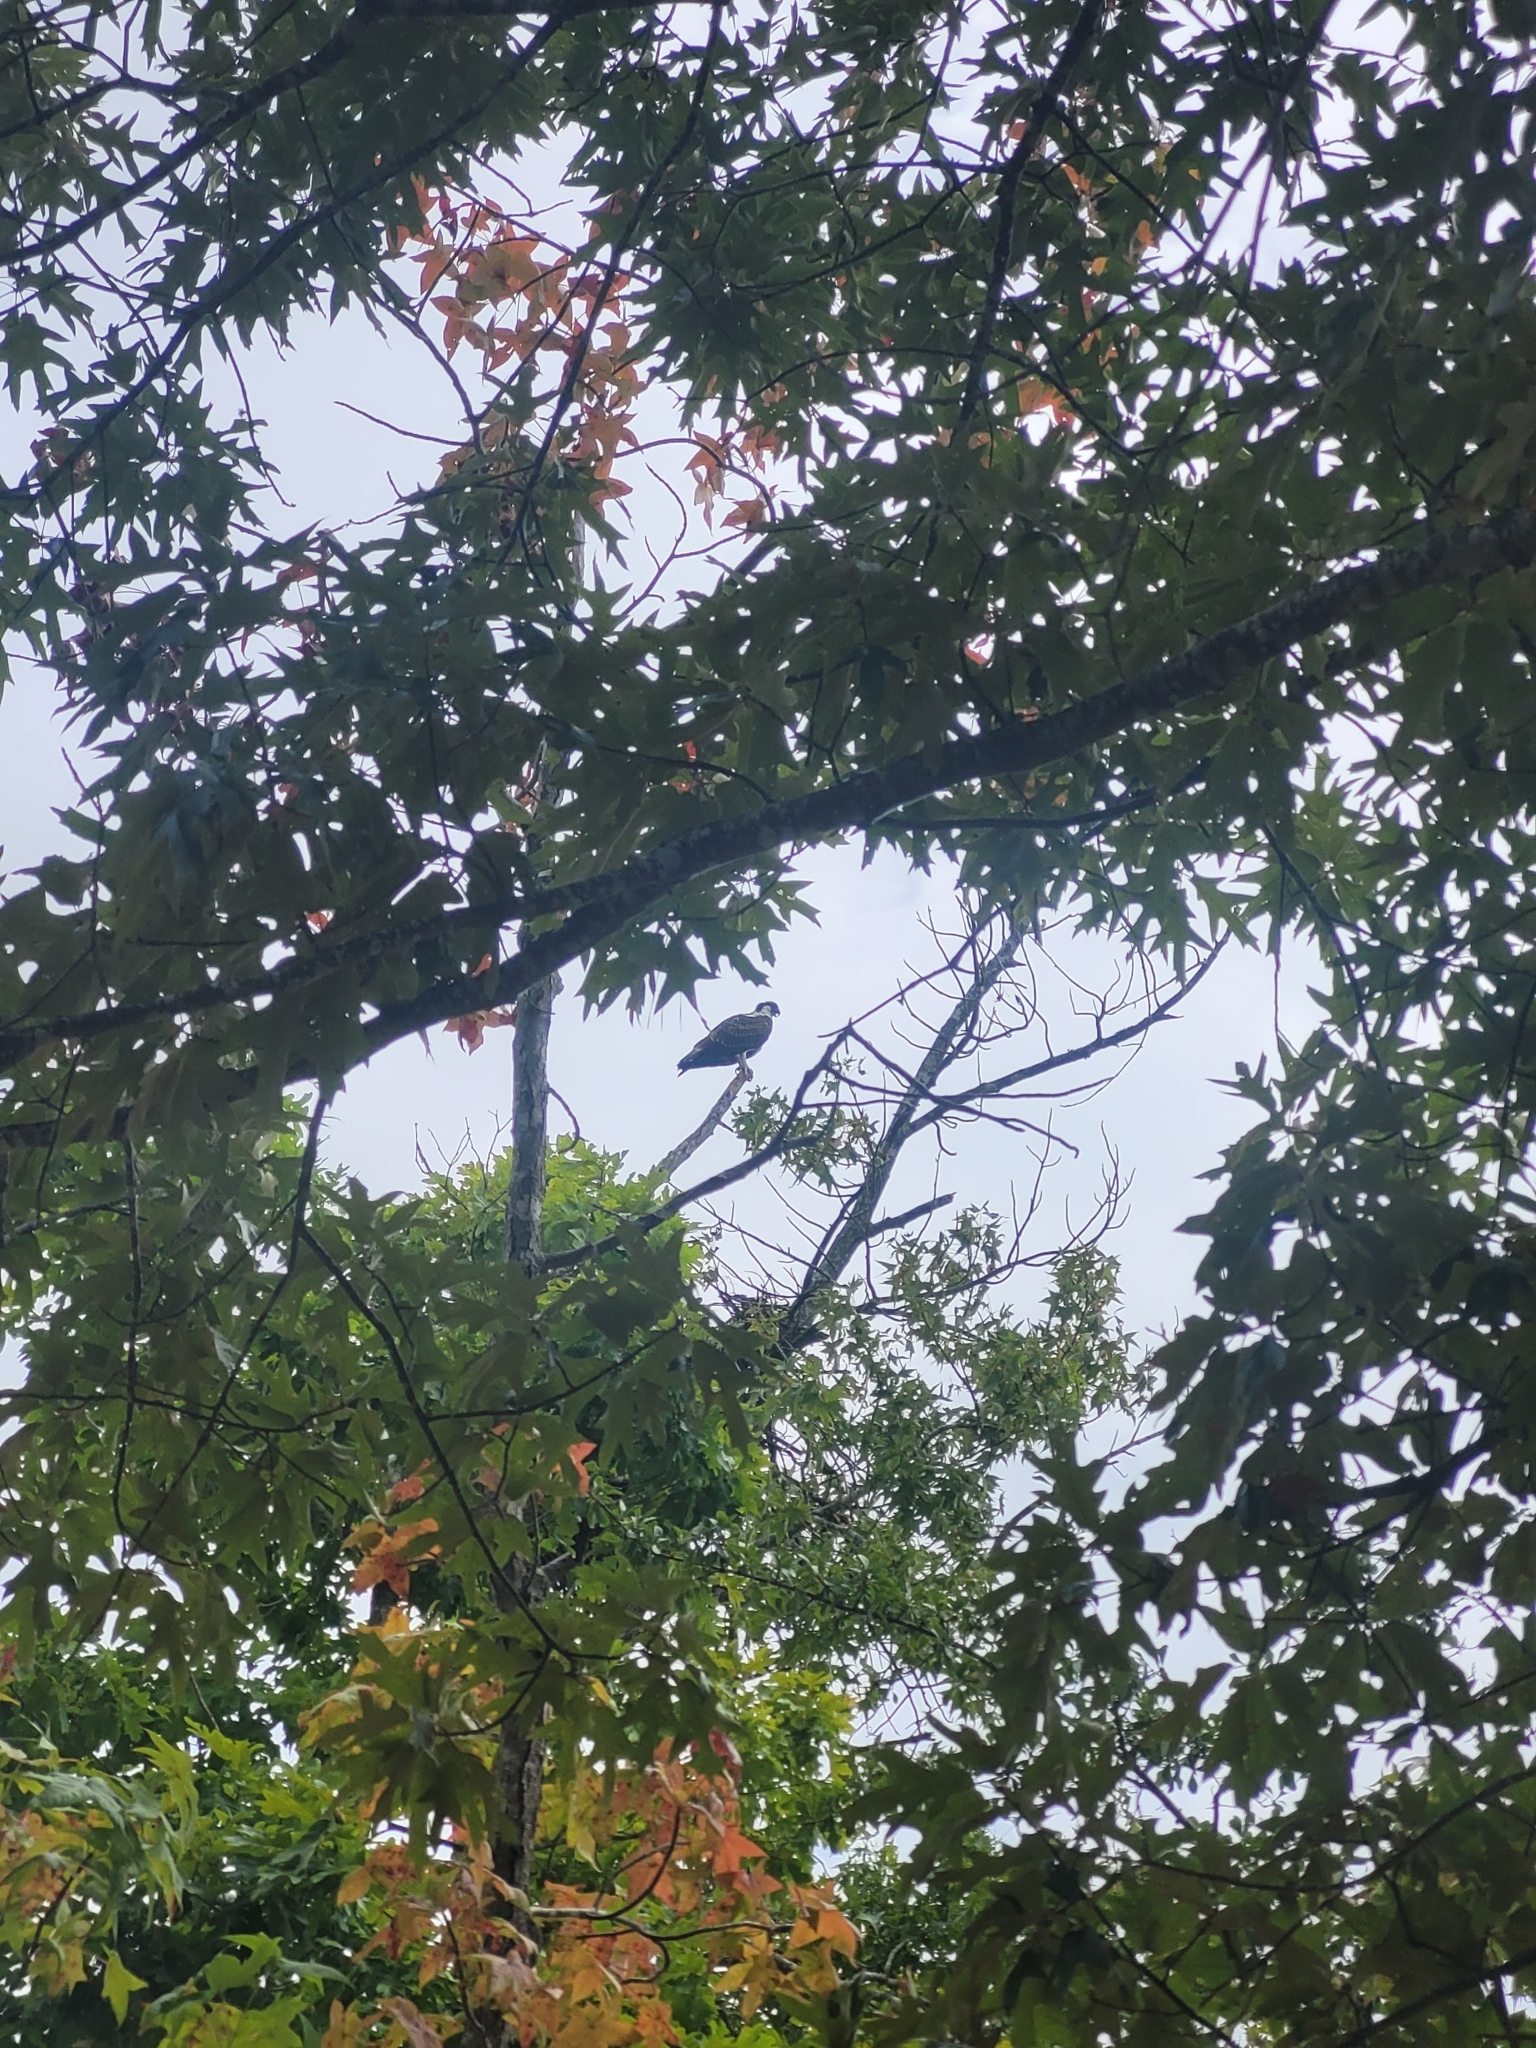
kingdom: Animalia
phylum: Chordata
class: Aves
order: Accipitriformes
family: Pandionidae
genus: Pandion
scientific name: Pandion haliaetus
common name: Osprey
